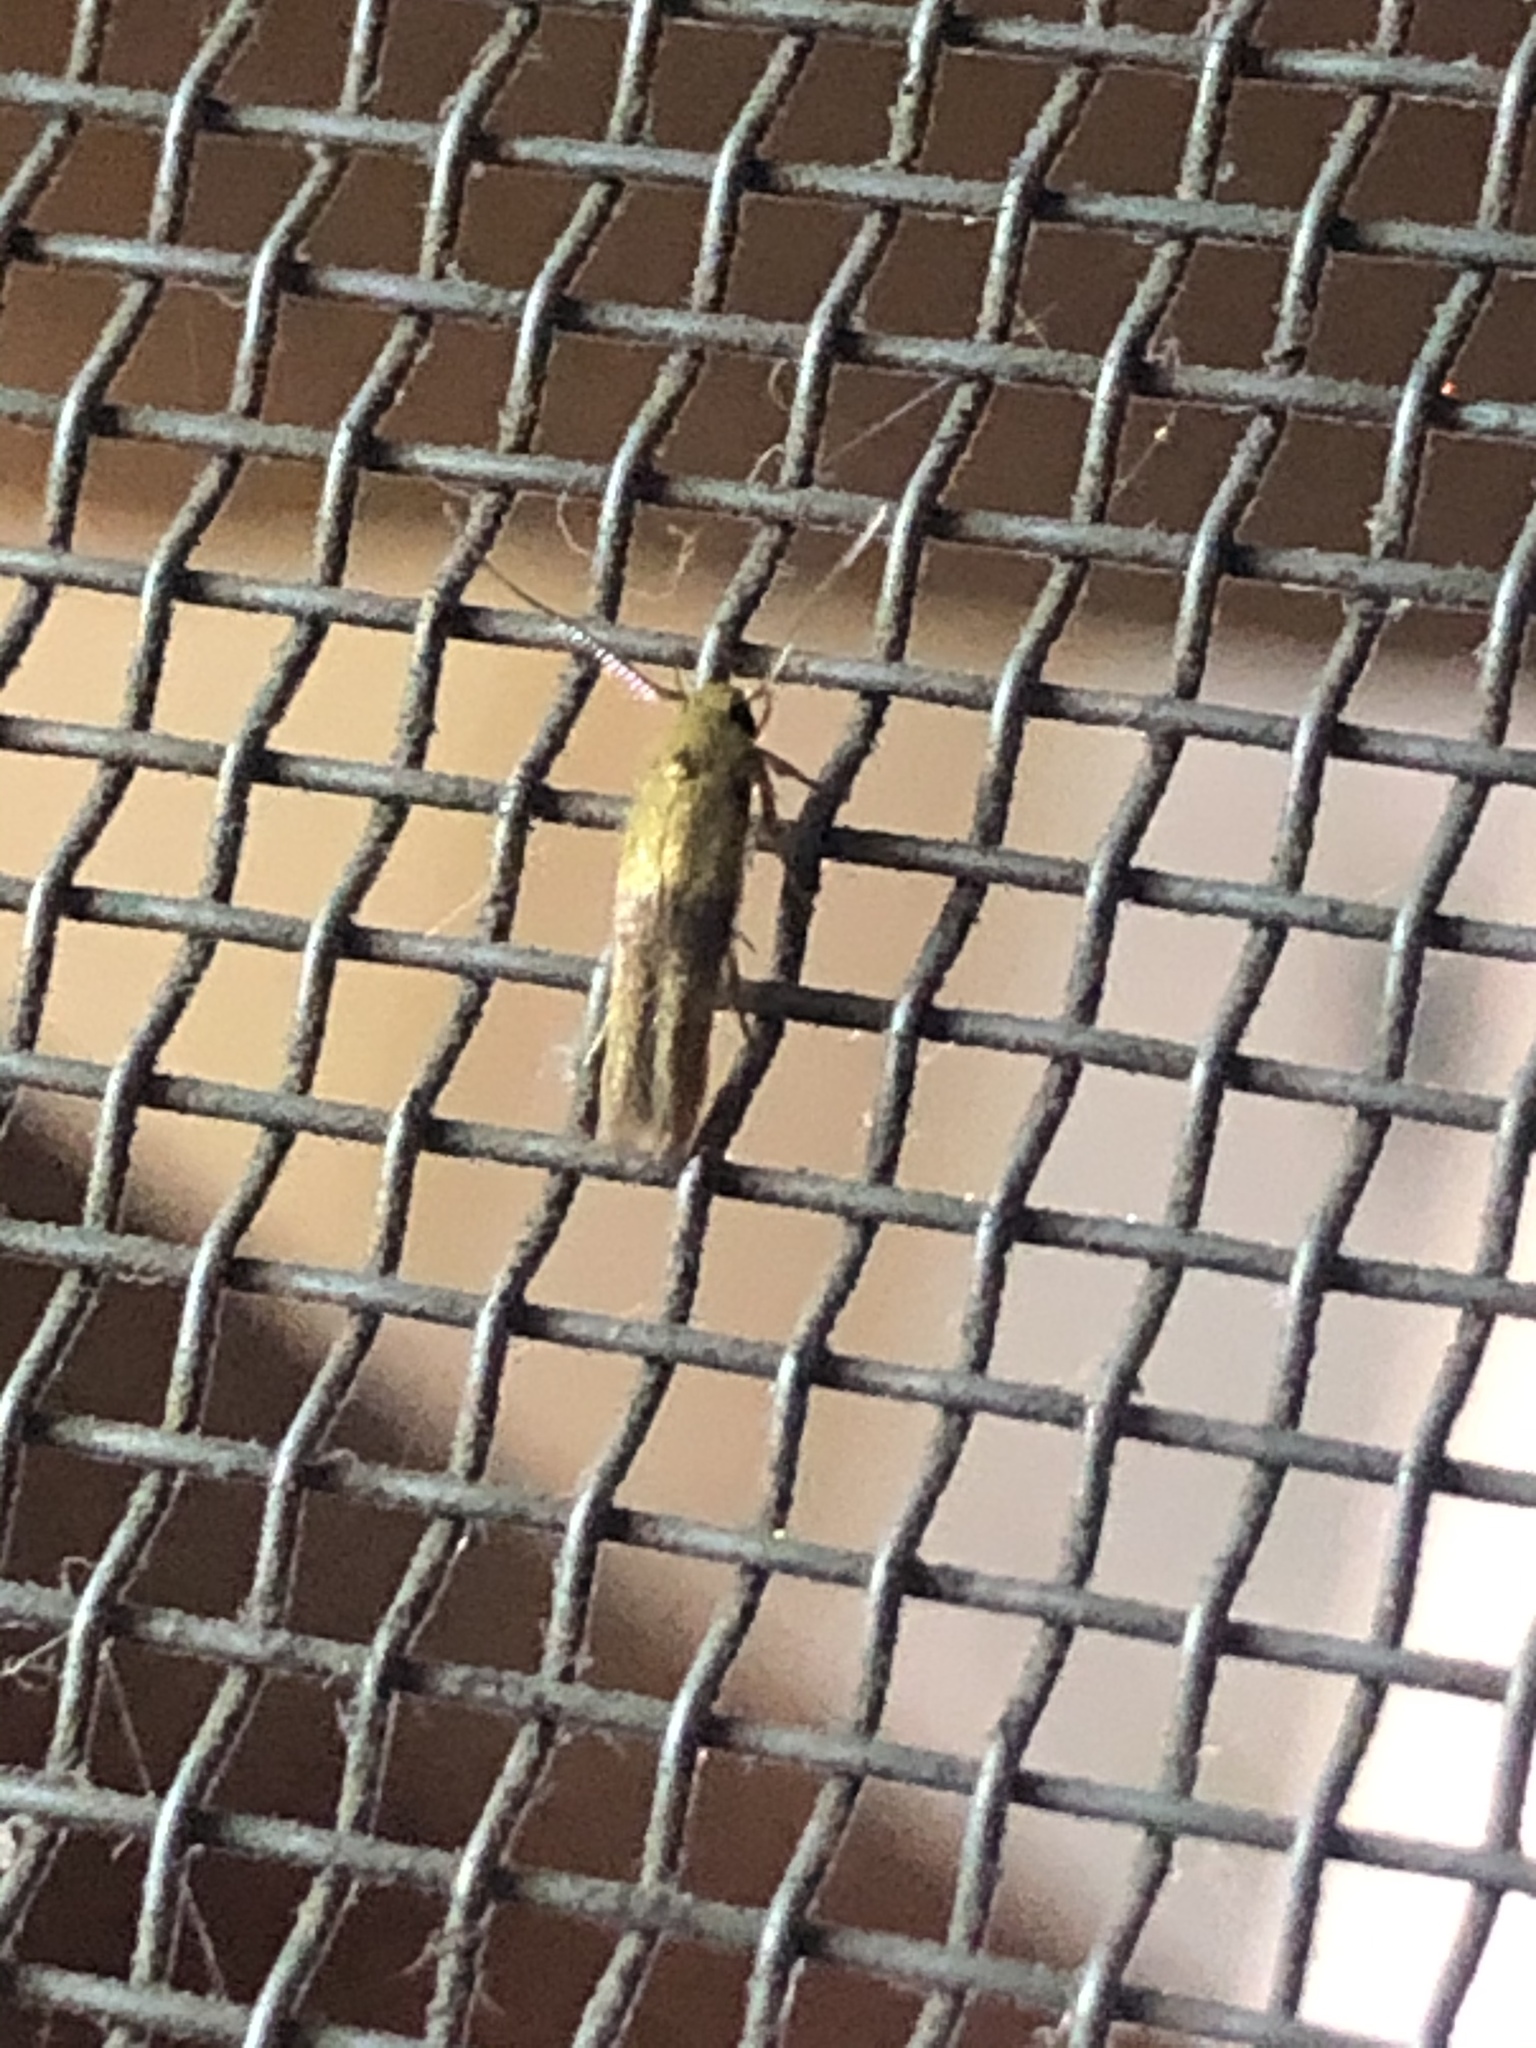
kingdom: Animalia
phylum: Arthropoda
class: Insecta
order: Lepidoptera
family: Stathmopodidae
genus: Stathmopoda
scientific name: Stathmopoda auriferella
